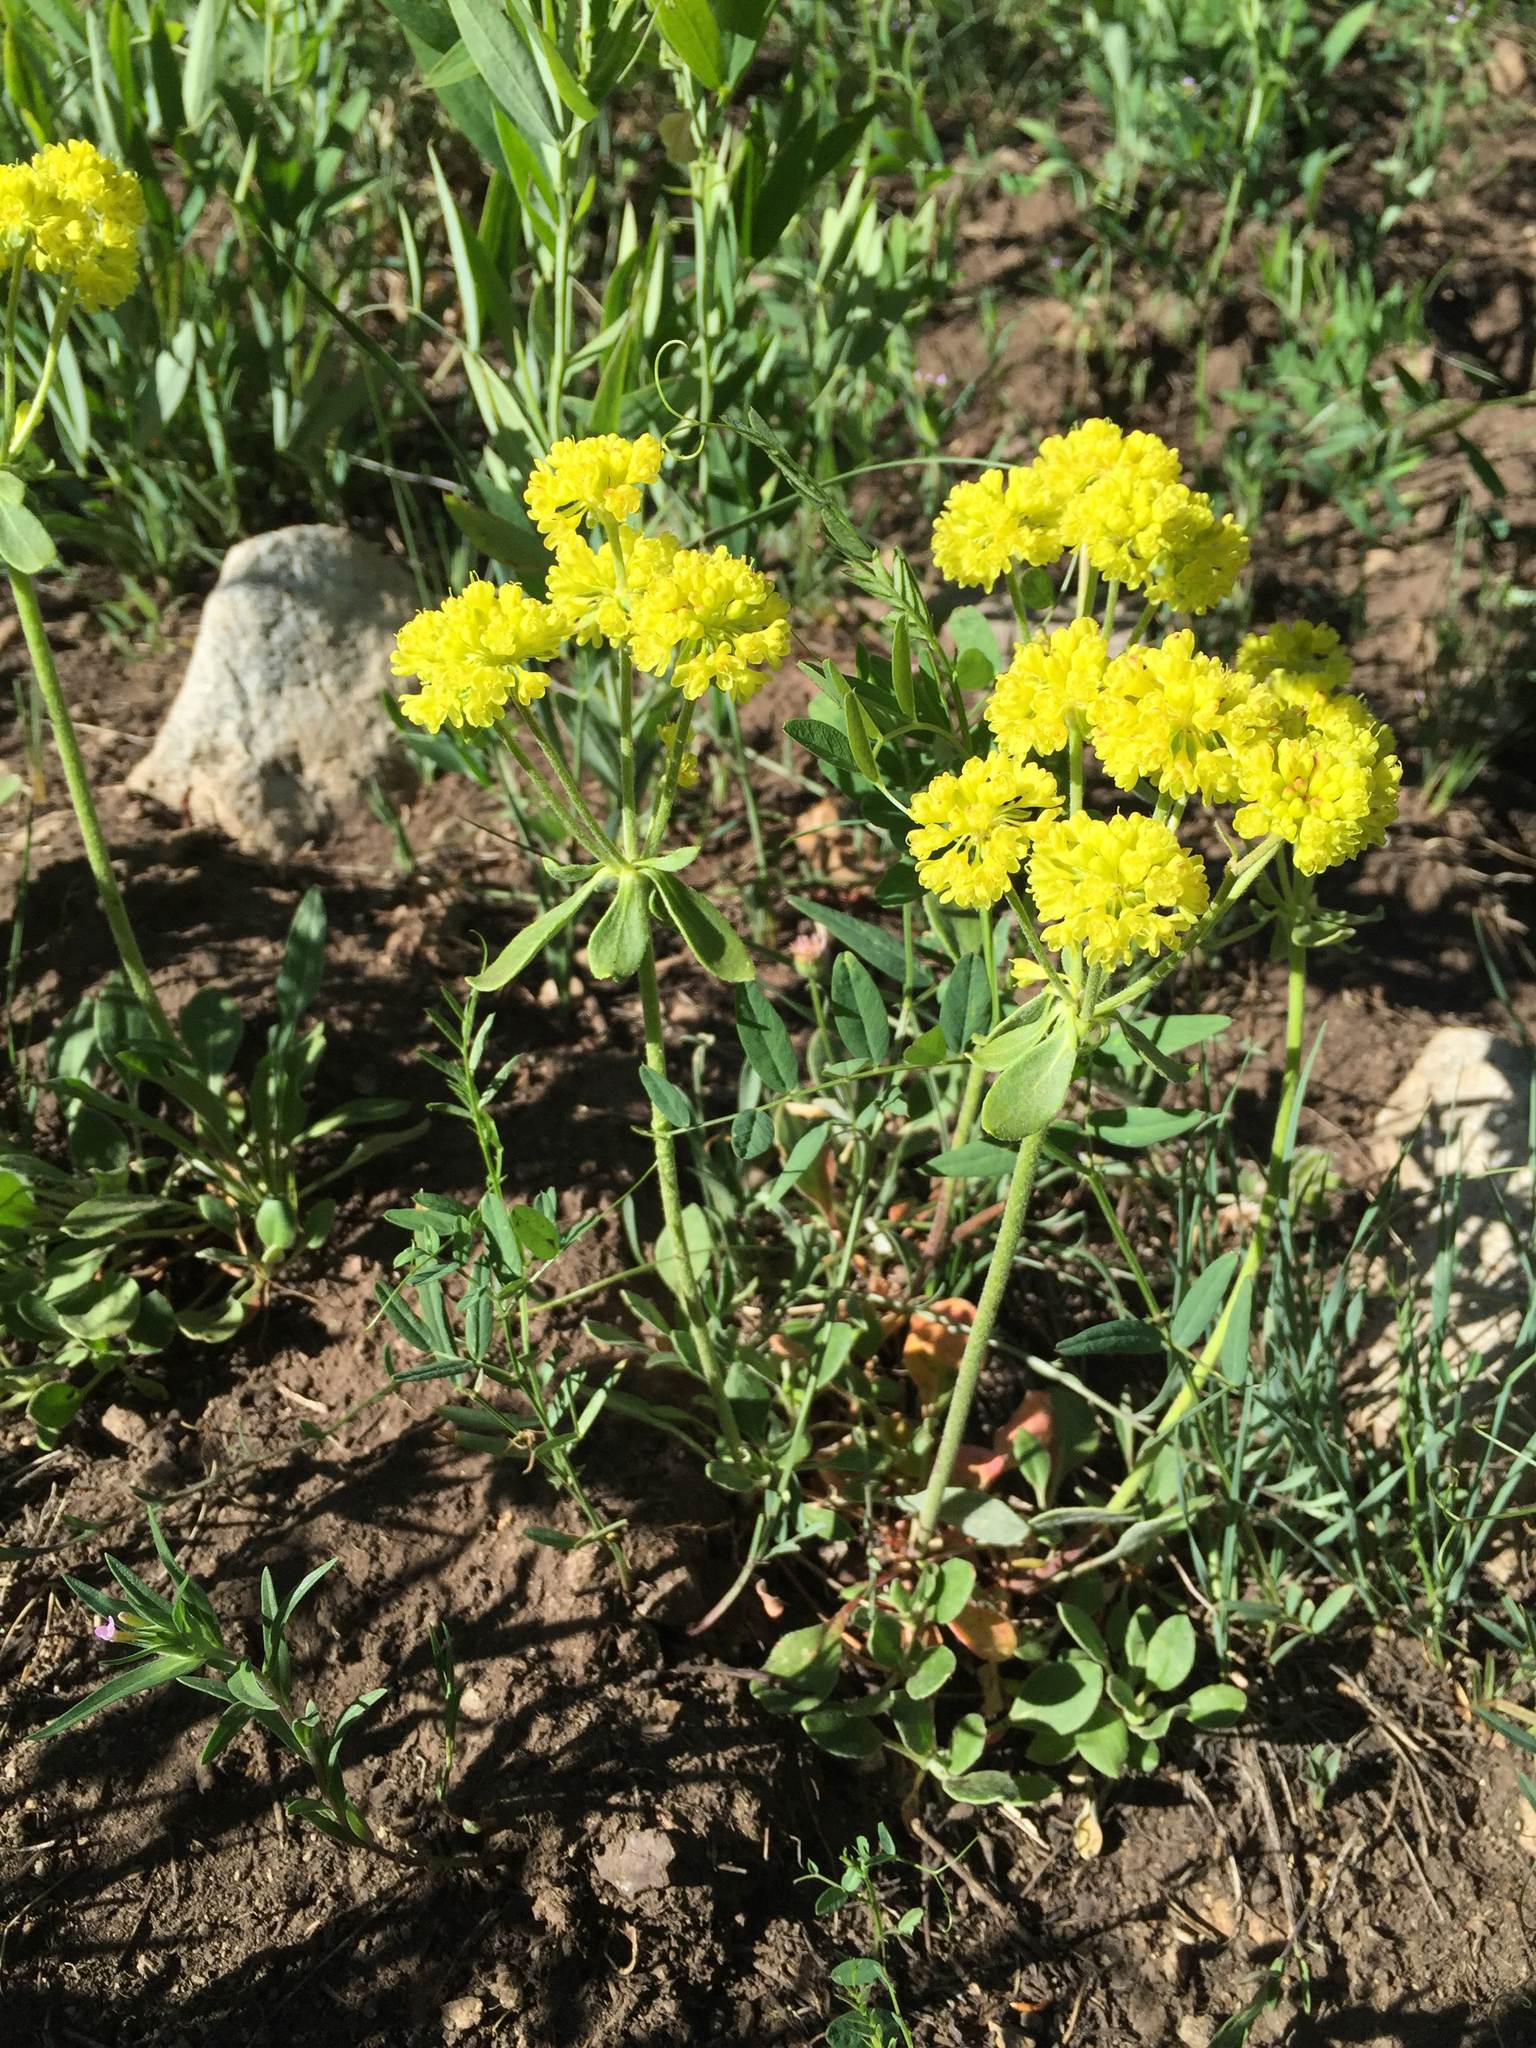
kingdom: Plantae
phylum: Tracheophyta
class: Magnoliopsida
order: Caryophyllales
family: Polygonaceae
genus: Eriogonum
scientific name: Eriogonum umbellatum
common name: Sulfur-buckwheat
